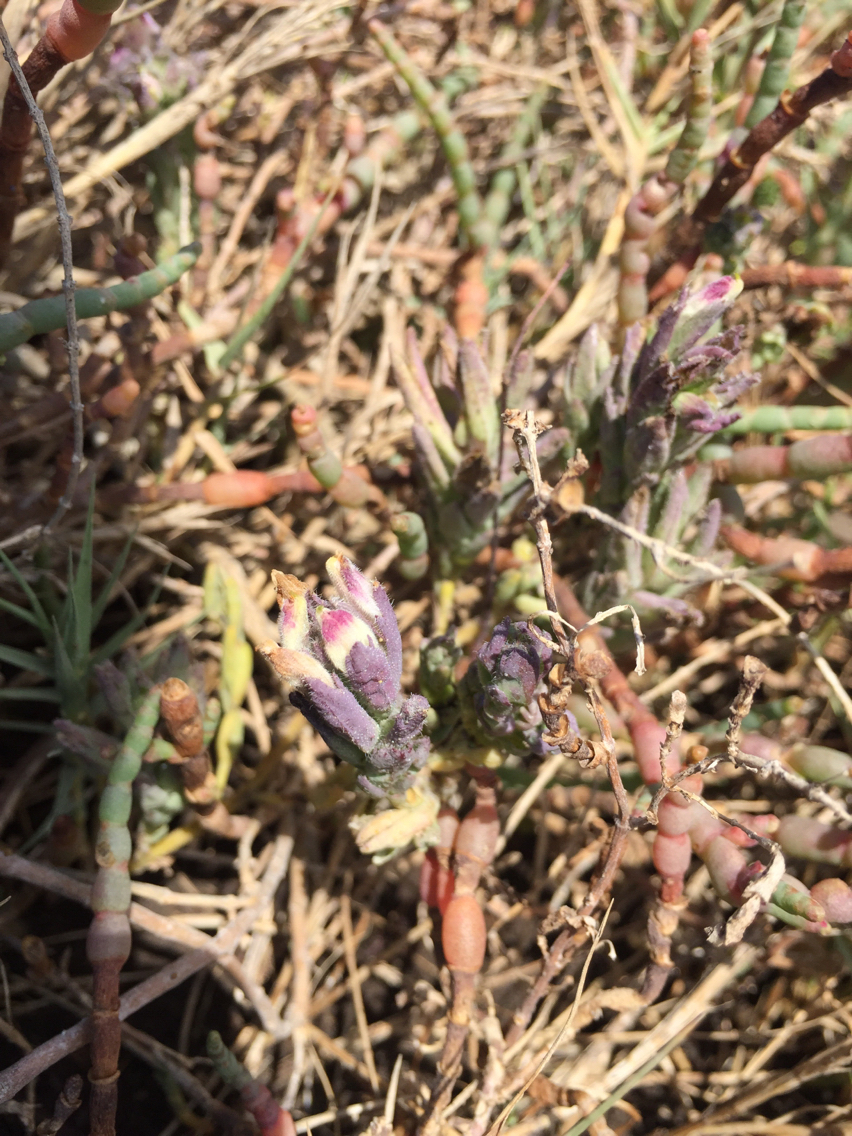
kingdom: Plantae
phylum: Tracheophyta
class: Magnoliopsida
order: Lamiales
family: Orobanchaceae
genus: Chloropyron
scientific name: Chloropyron maritimum
